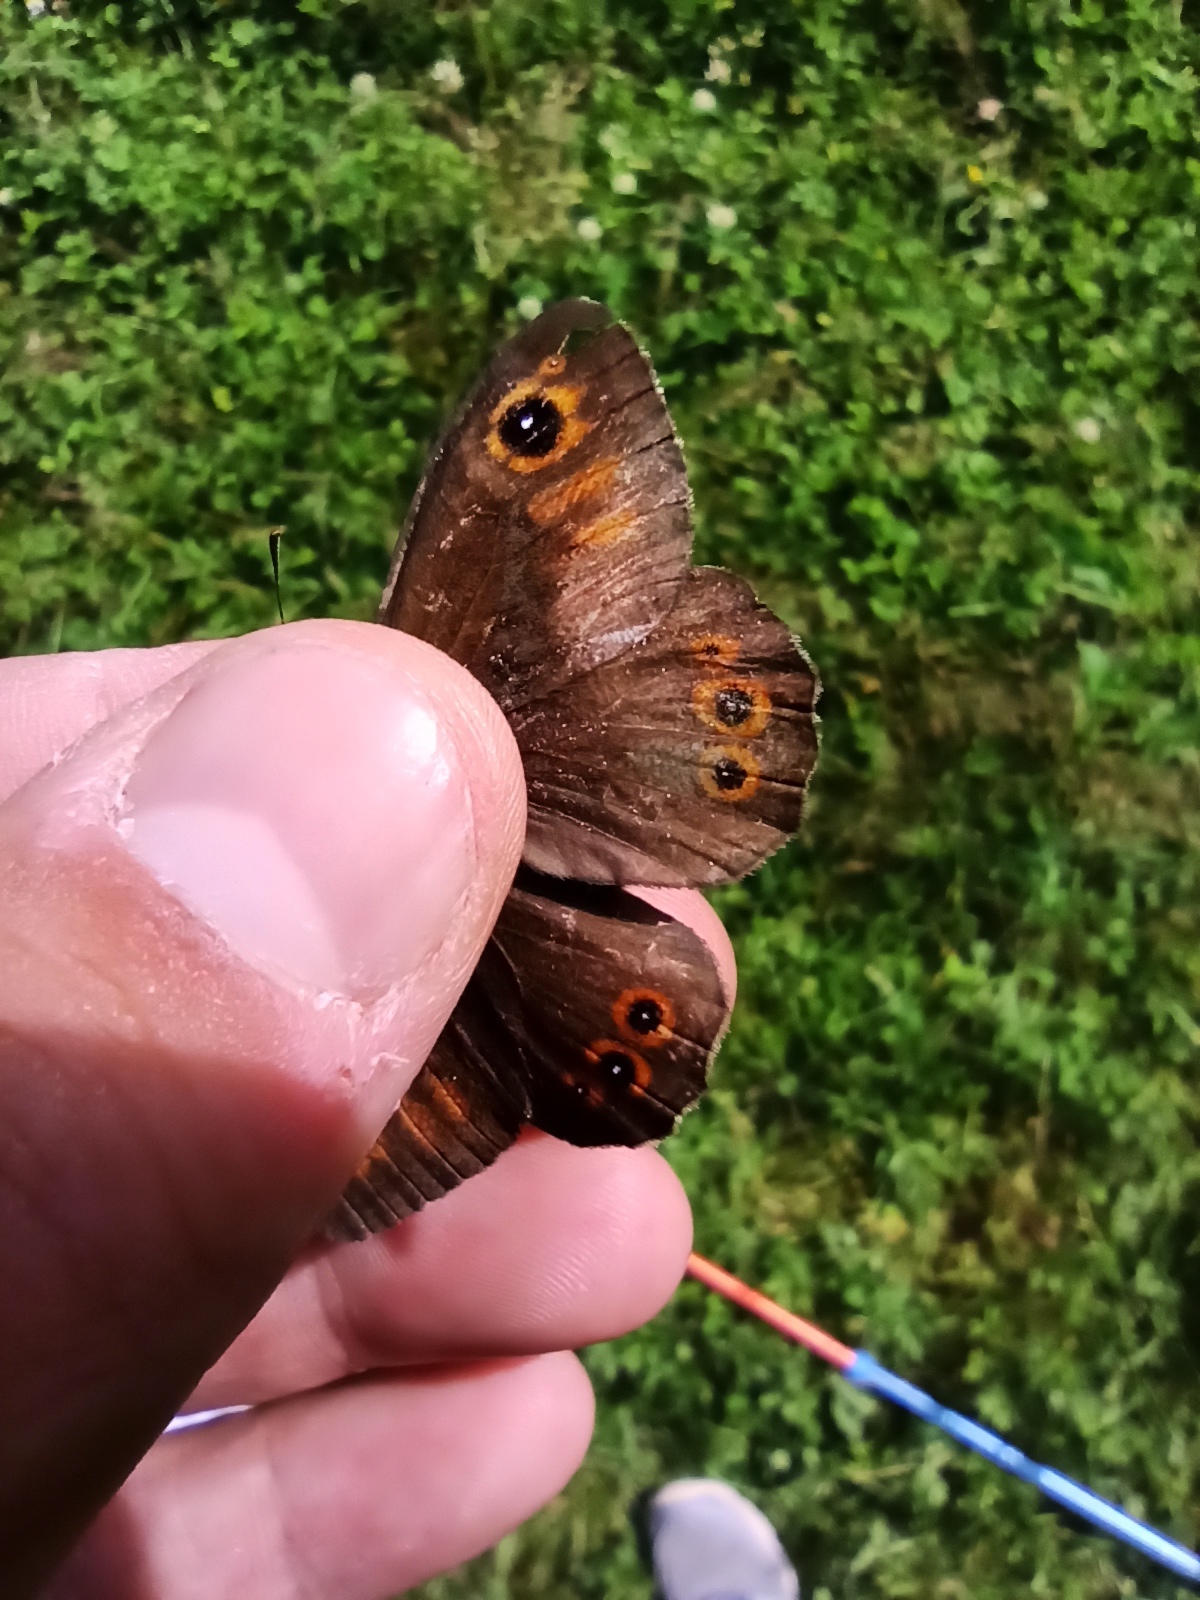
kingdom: Animalia
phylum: Arthropoda
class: Insecta
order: Lepidoptera
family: Nymphalidae
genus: Pararge
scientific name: Pararge Lasiommata maera
